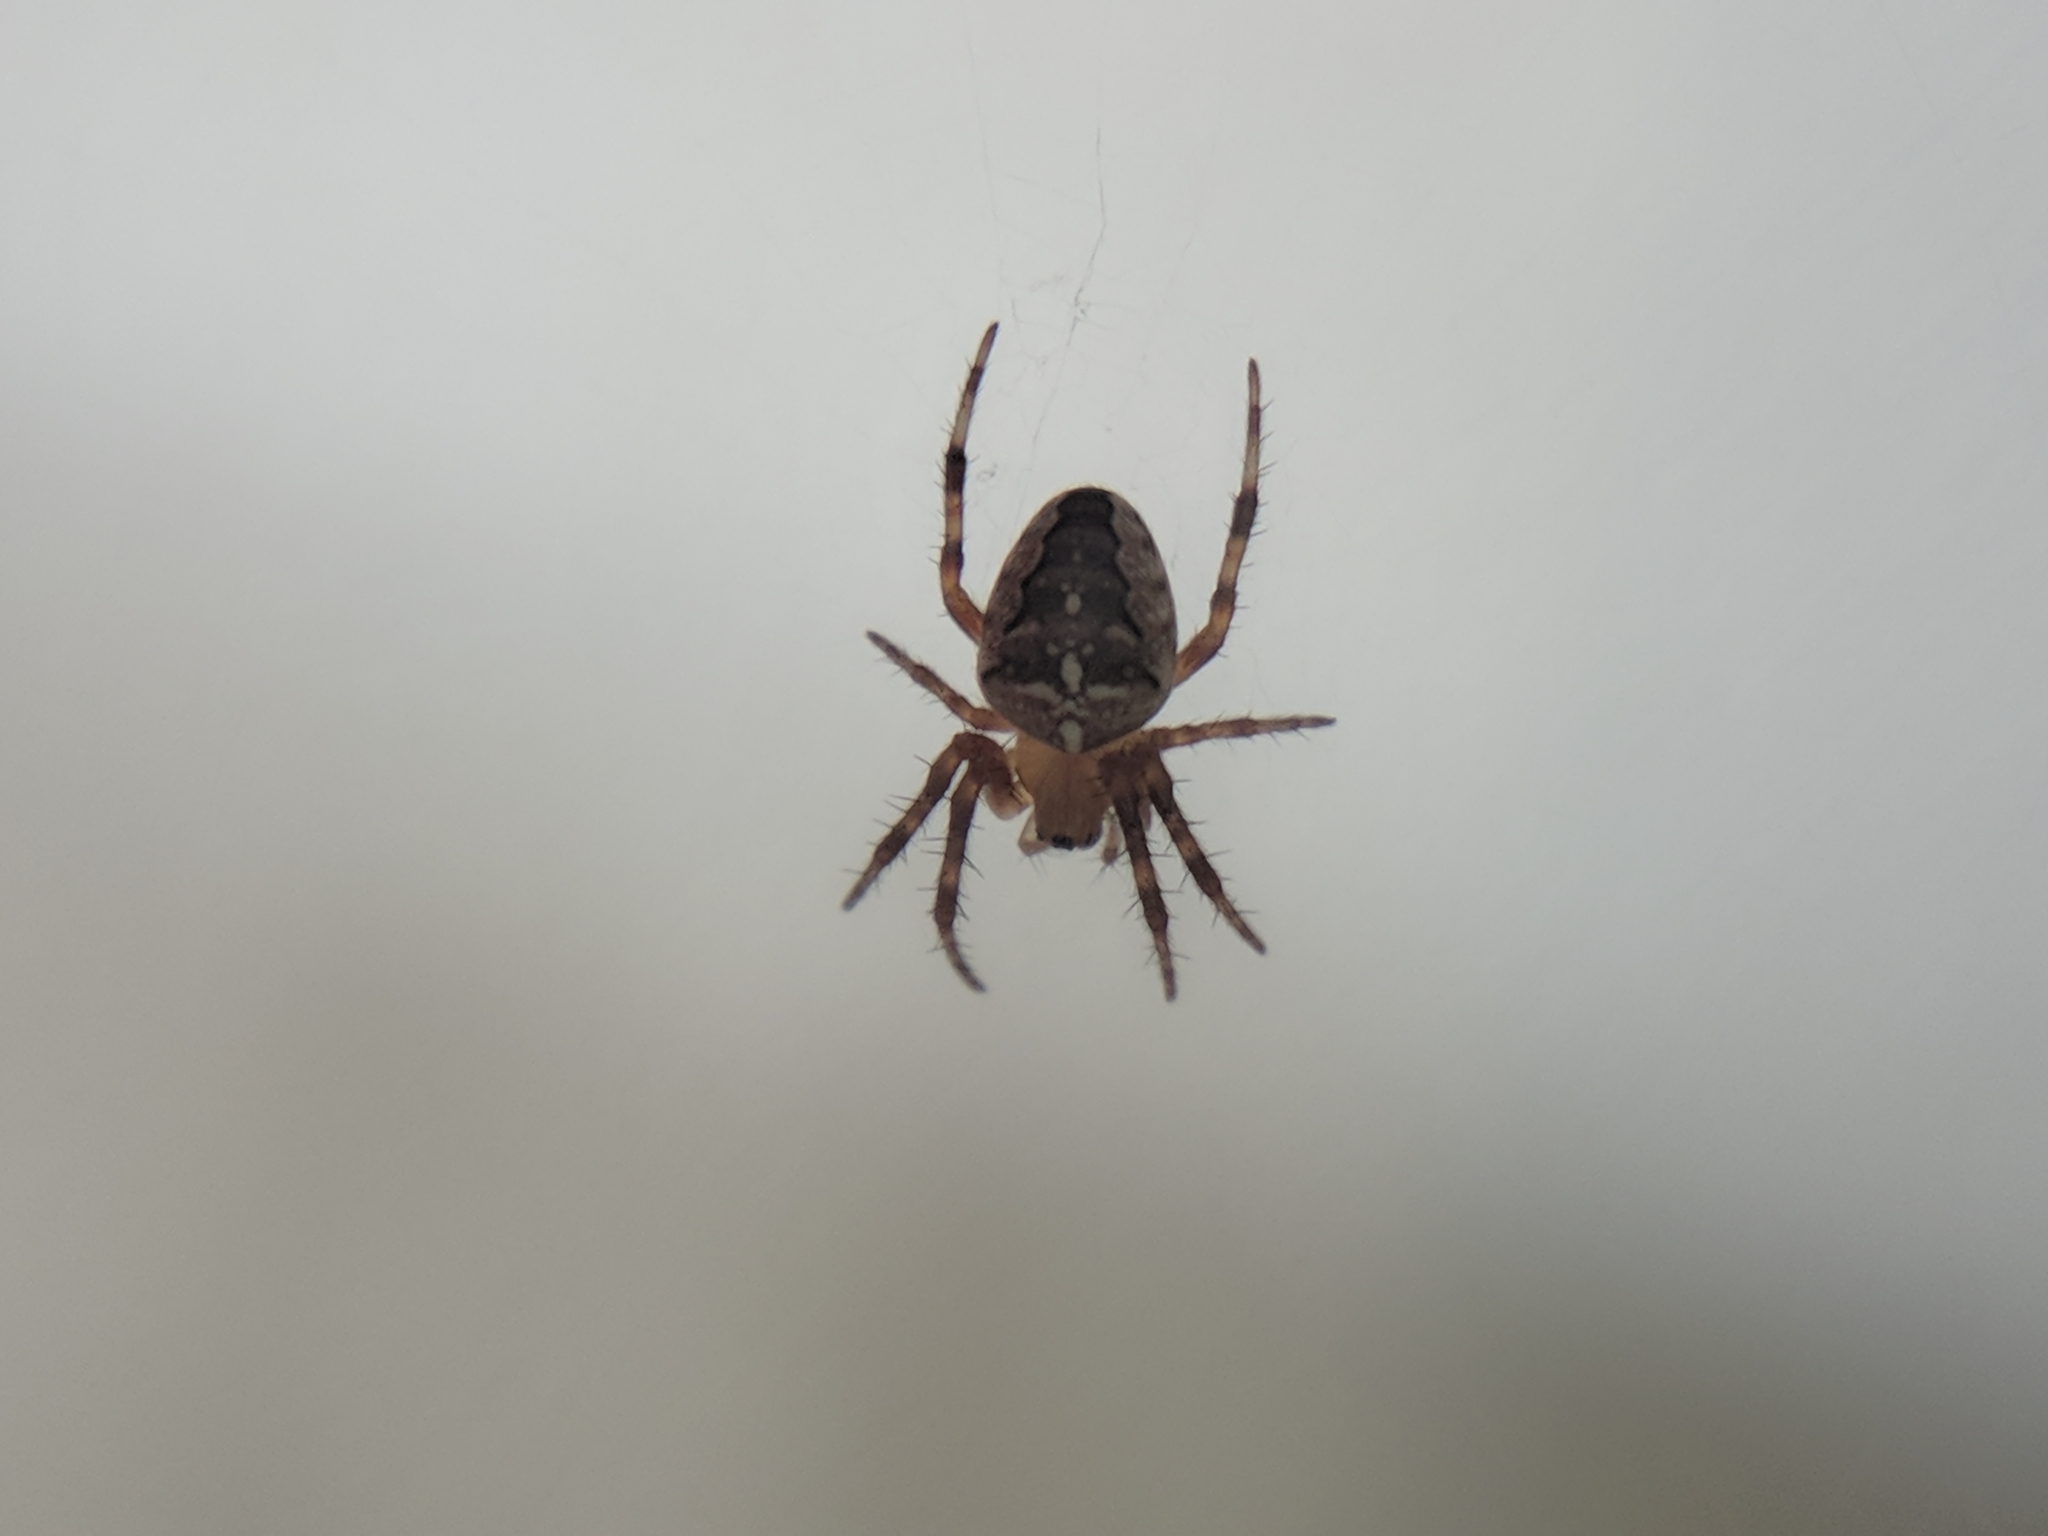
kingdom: Animalia
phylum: Arthropoda
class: Arachnida
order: Araneae
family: Araneidae
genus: Araneus
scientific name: Araneus diadematus
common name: Cross orbweaver
